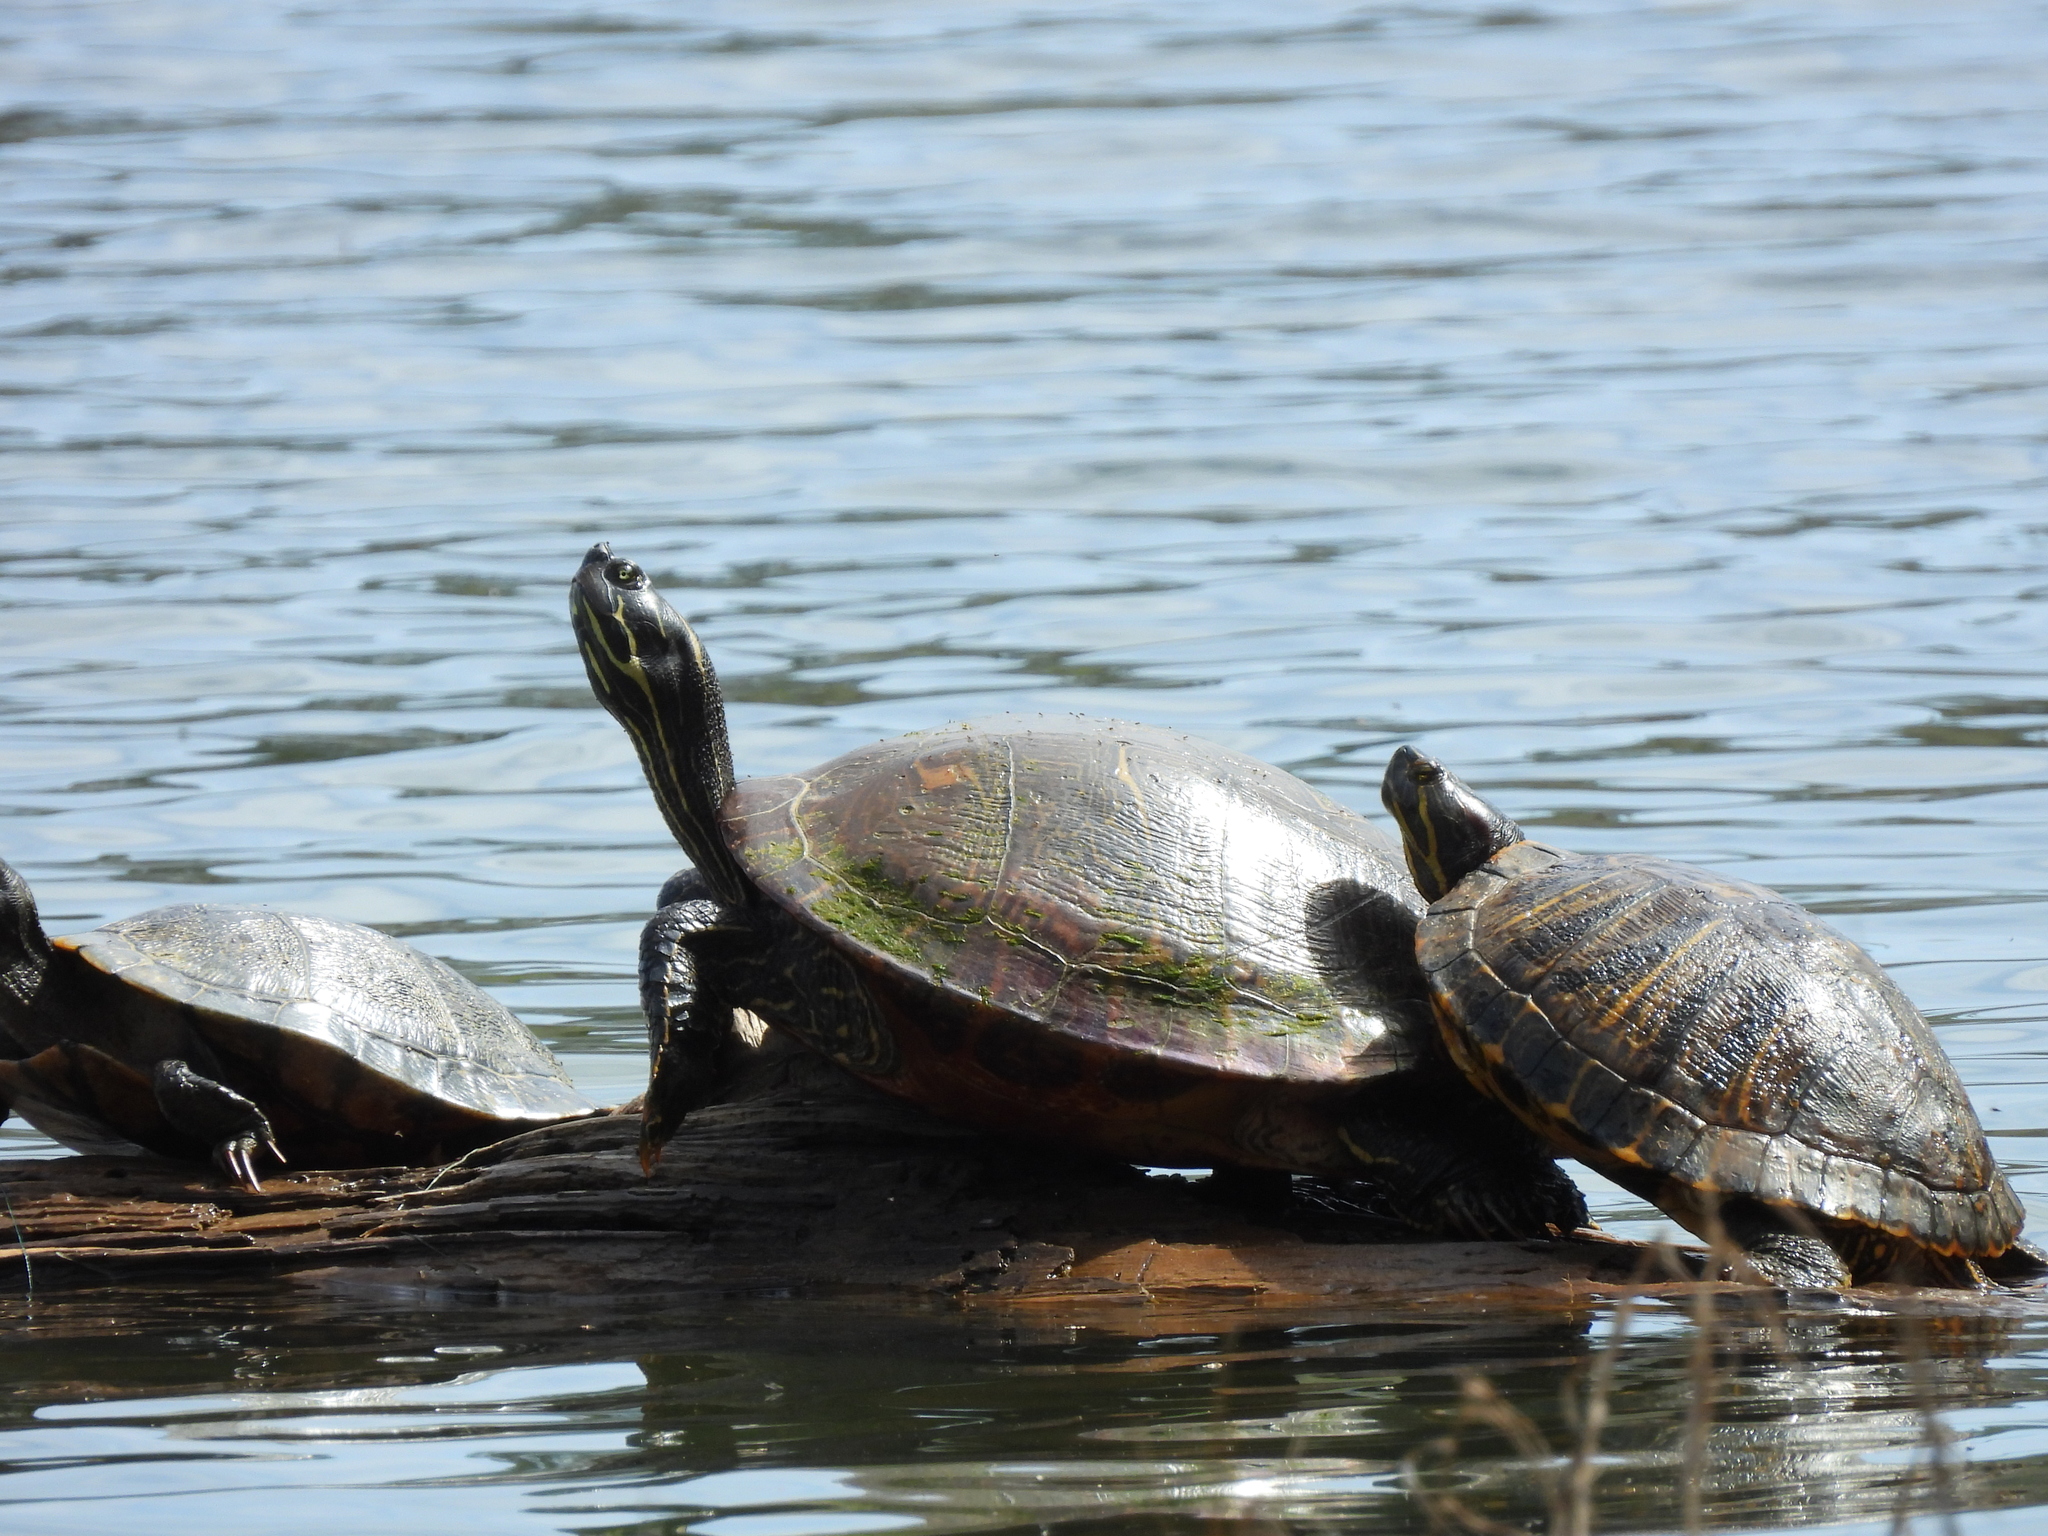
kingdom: Animalia
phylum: Chordata
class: Testudines
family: Emydidae
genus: Pseudemys
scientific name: Pseudemys concinna
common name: Eastern river cooter
